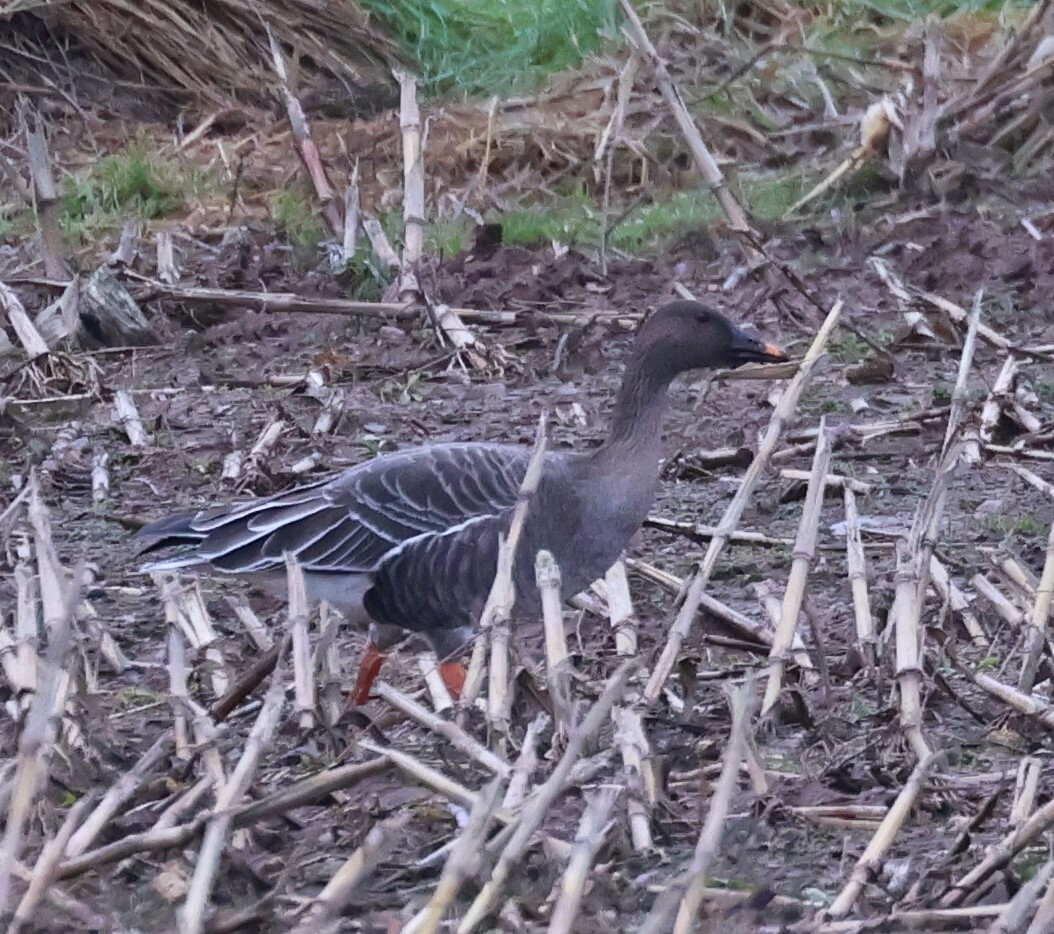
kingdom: Animalia
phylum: Chordata
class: Aves
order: Anseriformes
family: Anatidae
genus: Anser
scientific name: Anser serrirostris
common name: Tundra bean goose
